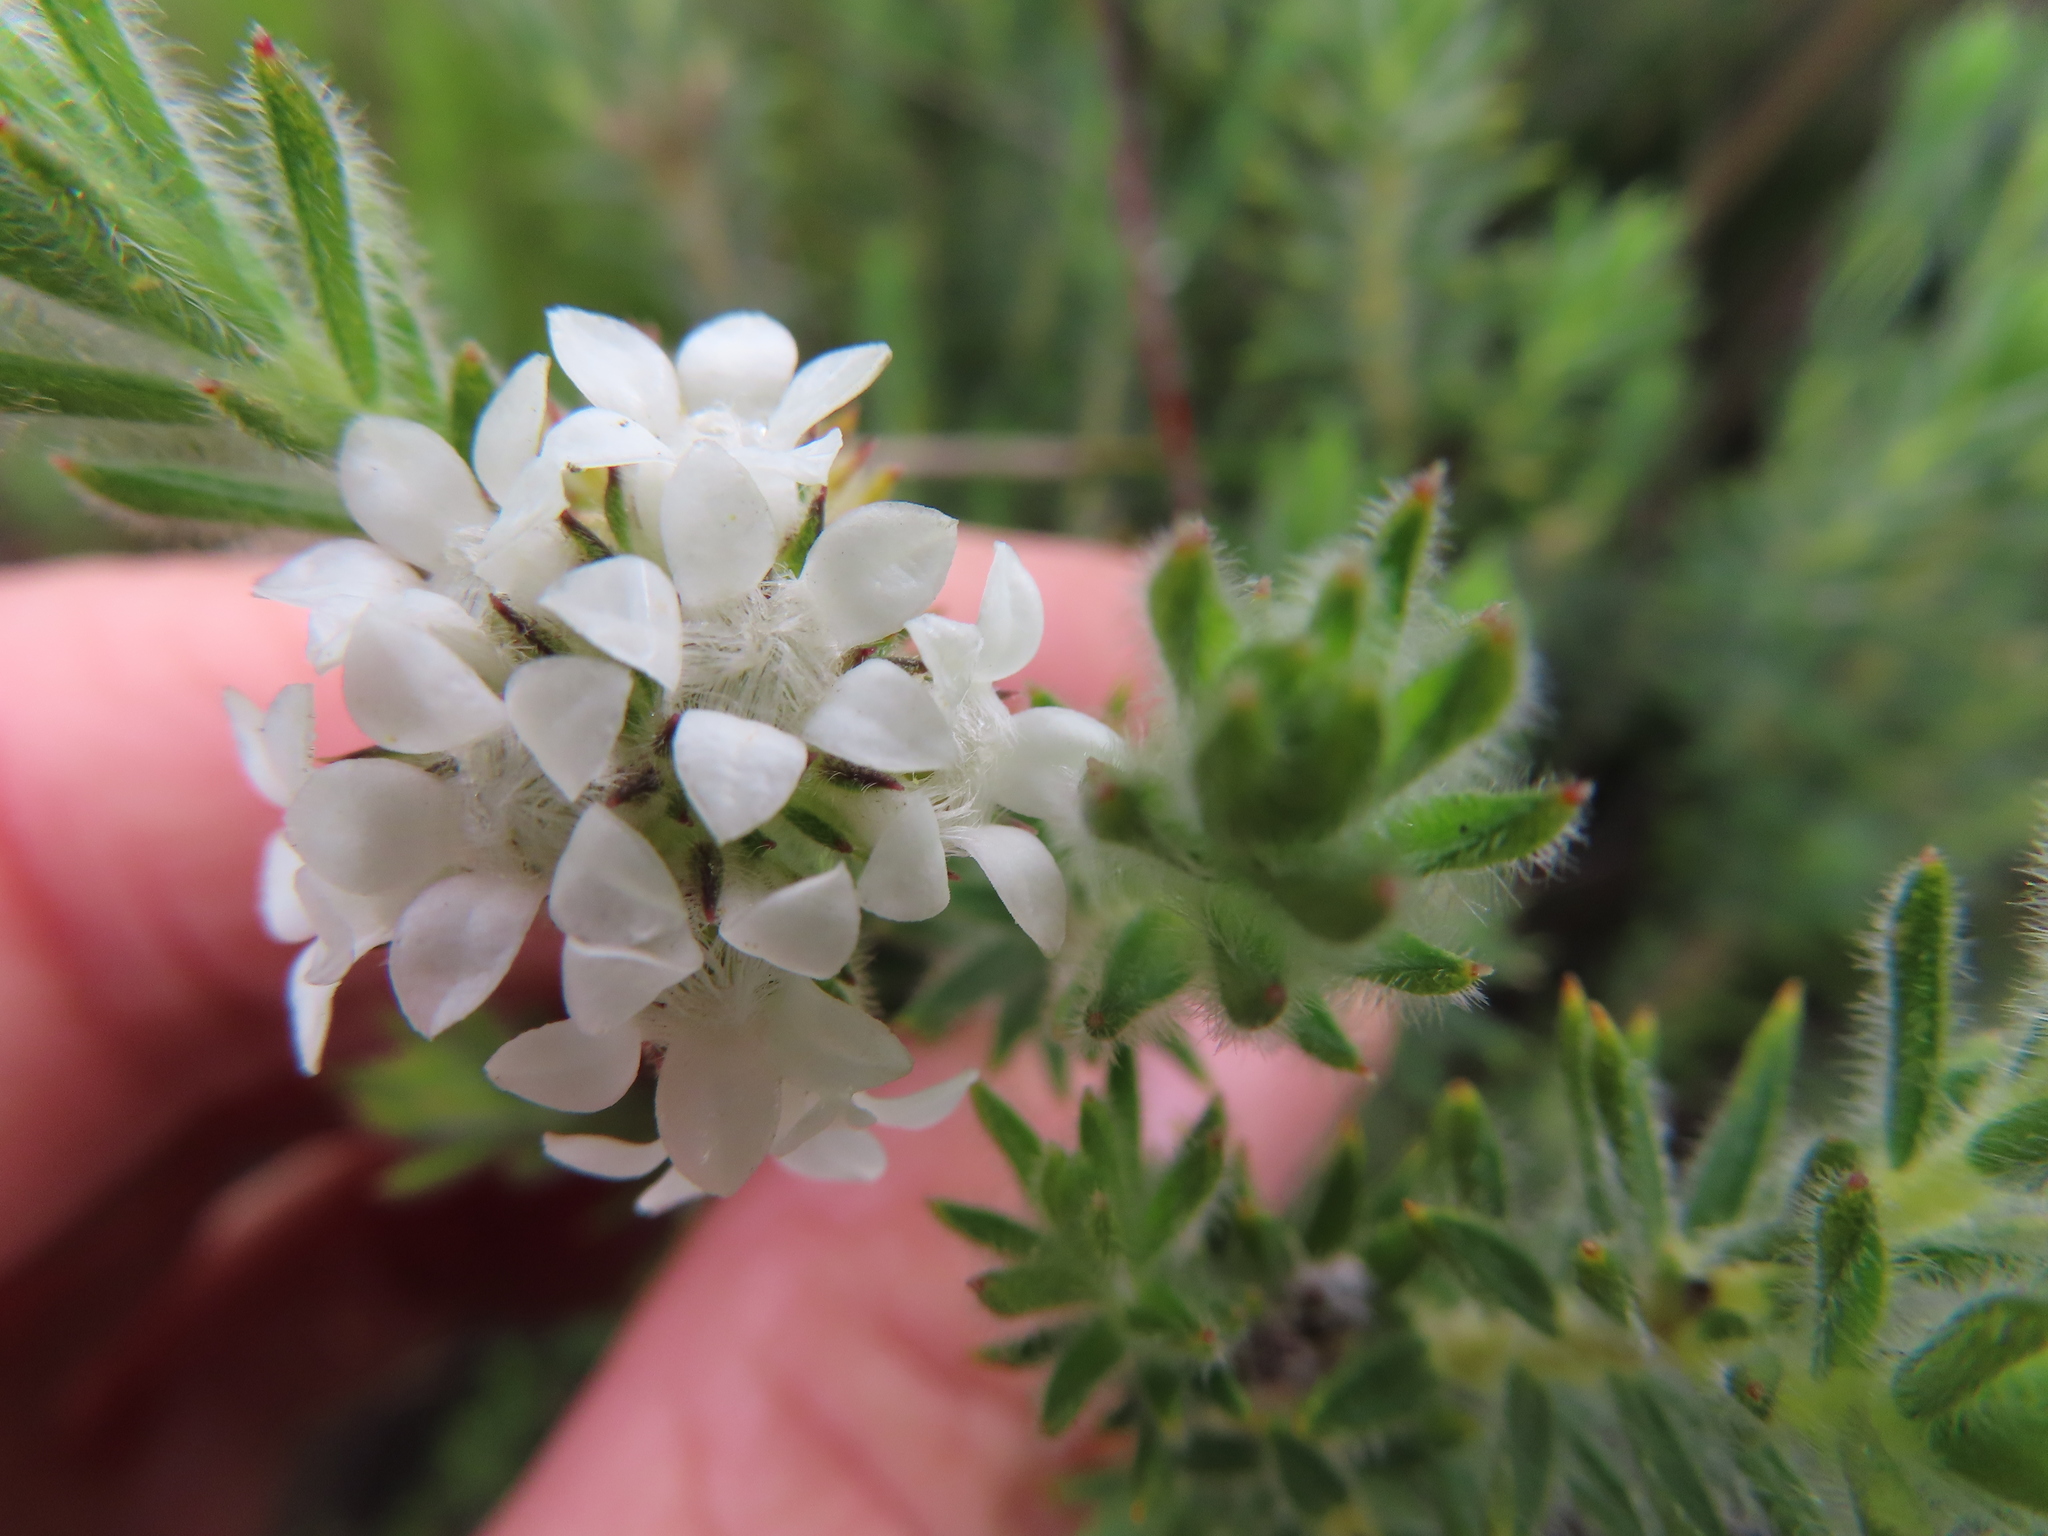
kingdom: Plantae
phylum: Tracheophyta
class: Magnoliopsida
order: Sapindales
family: Rutaceae
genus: Euchaetis
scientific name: Euchaetis schlechteri
